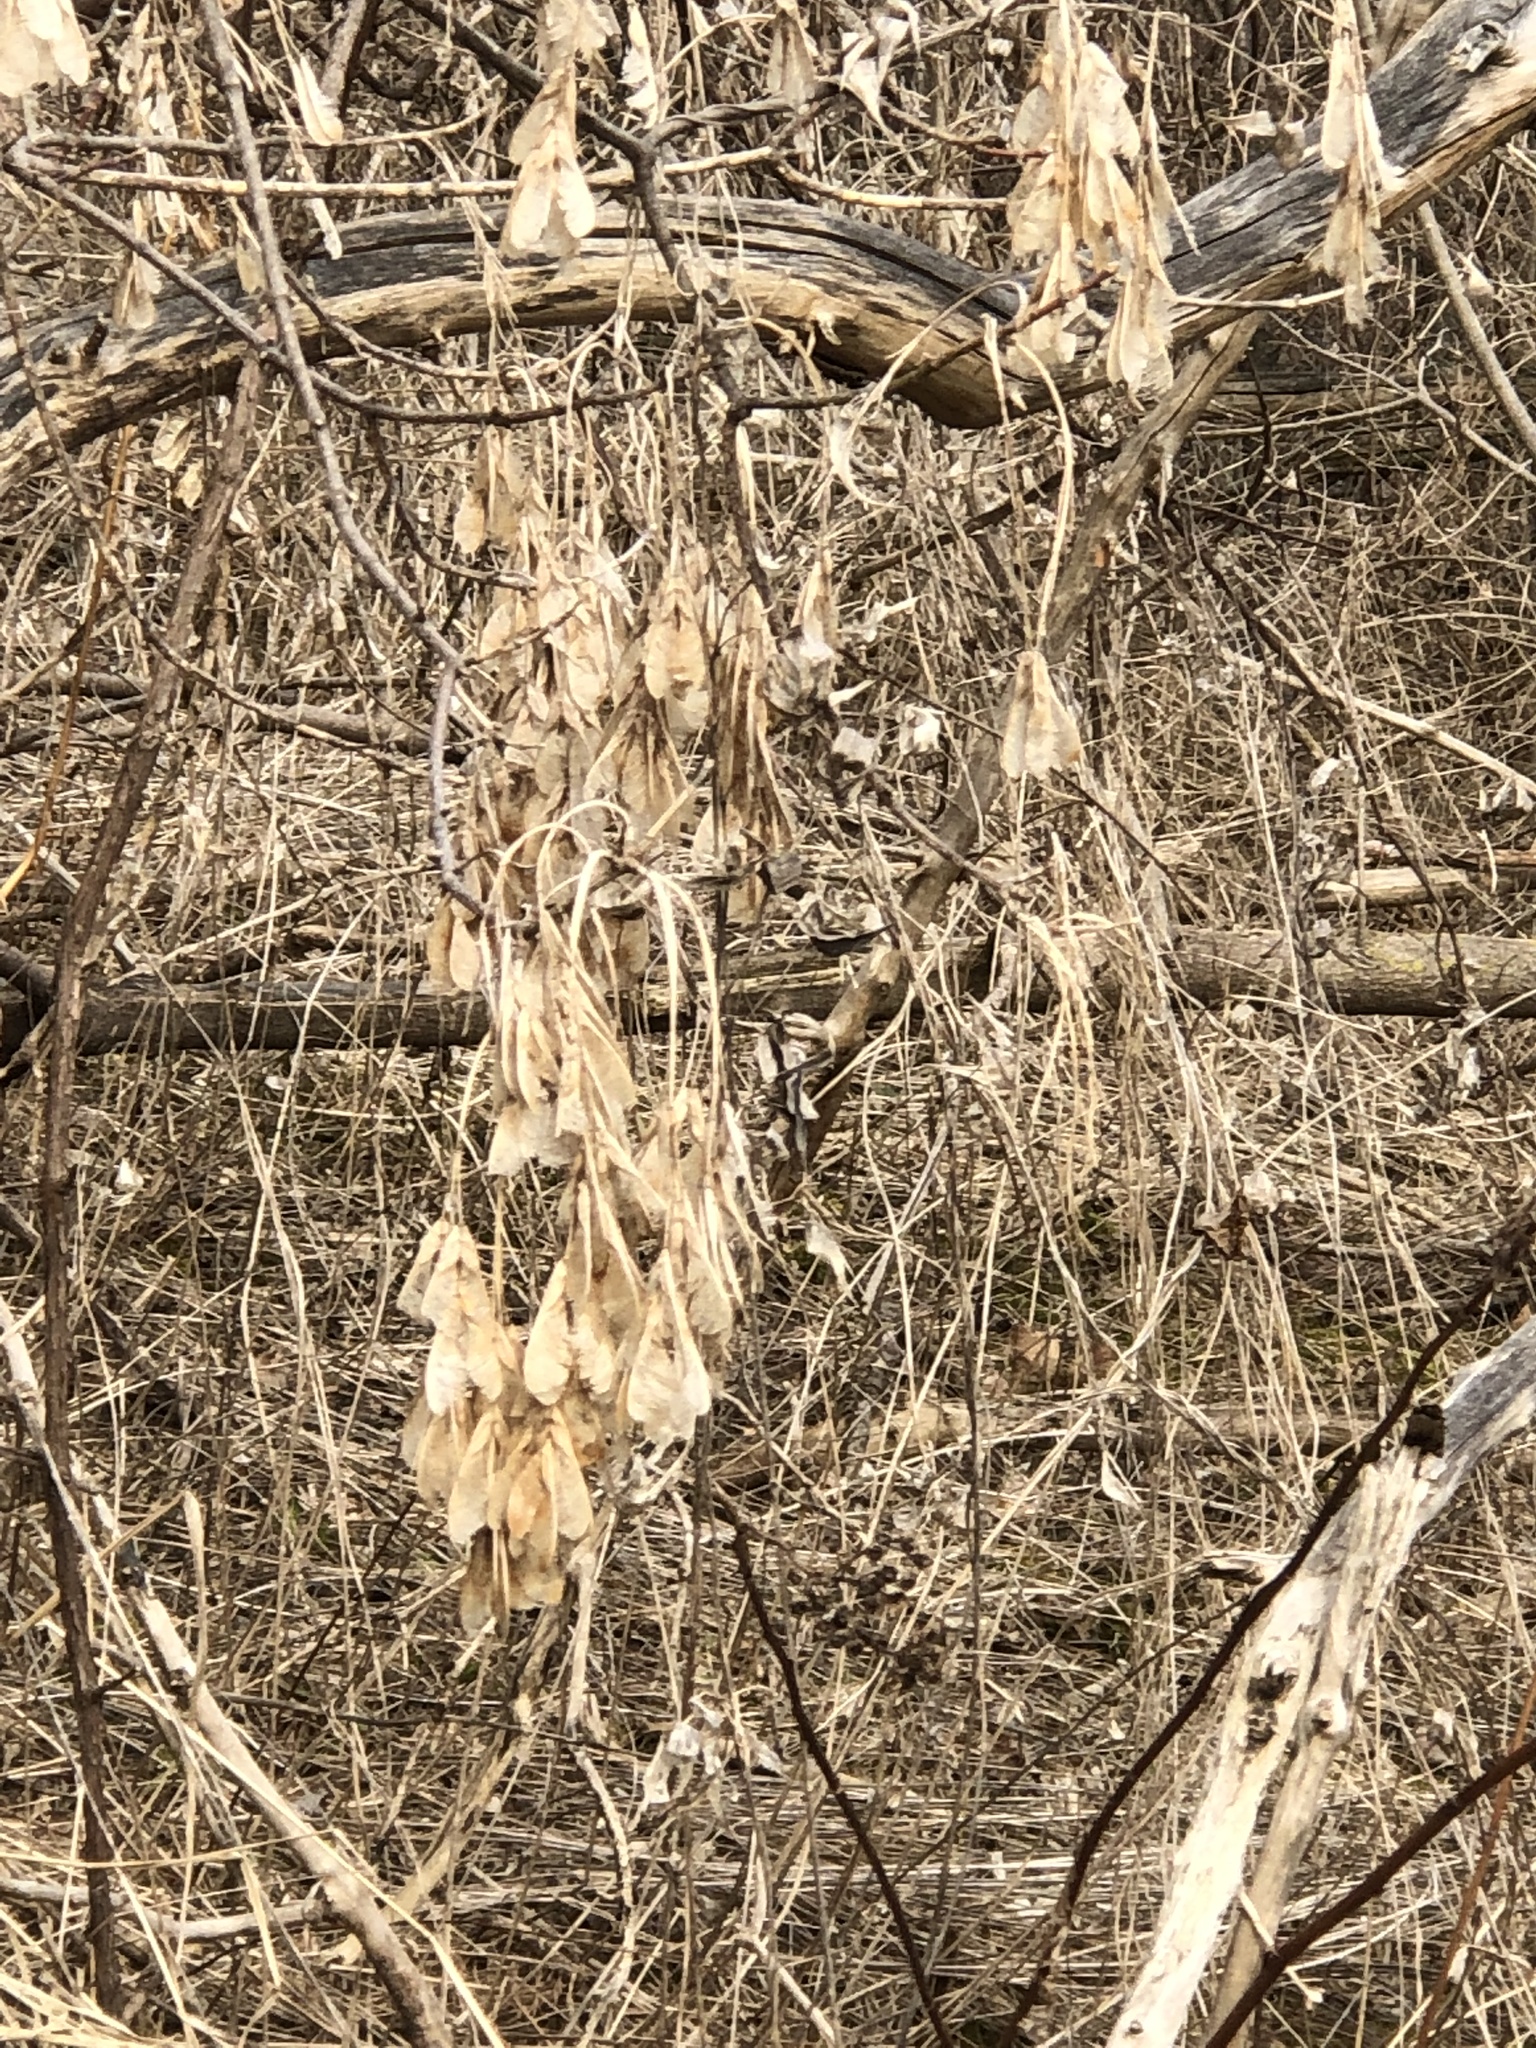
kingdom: Plantae
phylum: Tracheophyta
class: Magnoliopsida
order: Sapindales
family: Sapindaceae
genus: Acer
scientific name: Acer negundo
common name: Ashleaf maple
